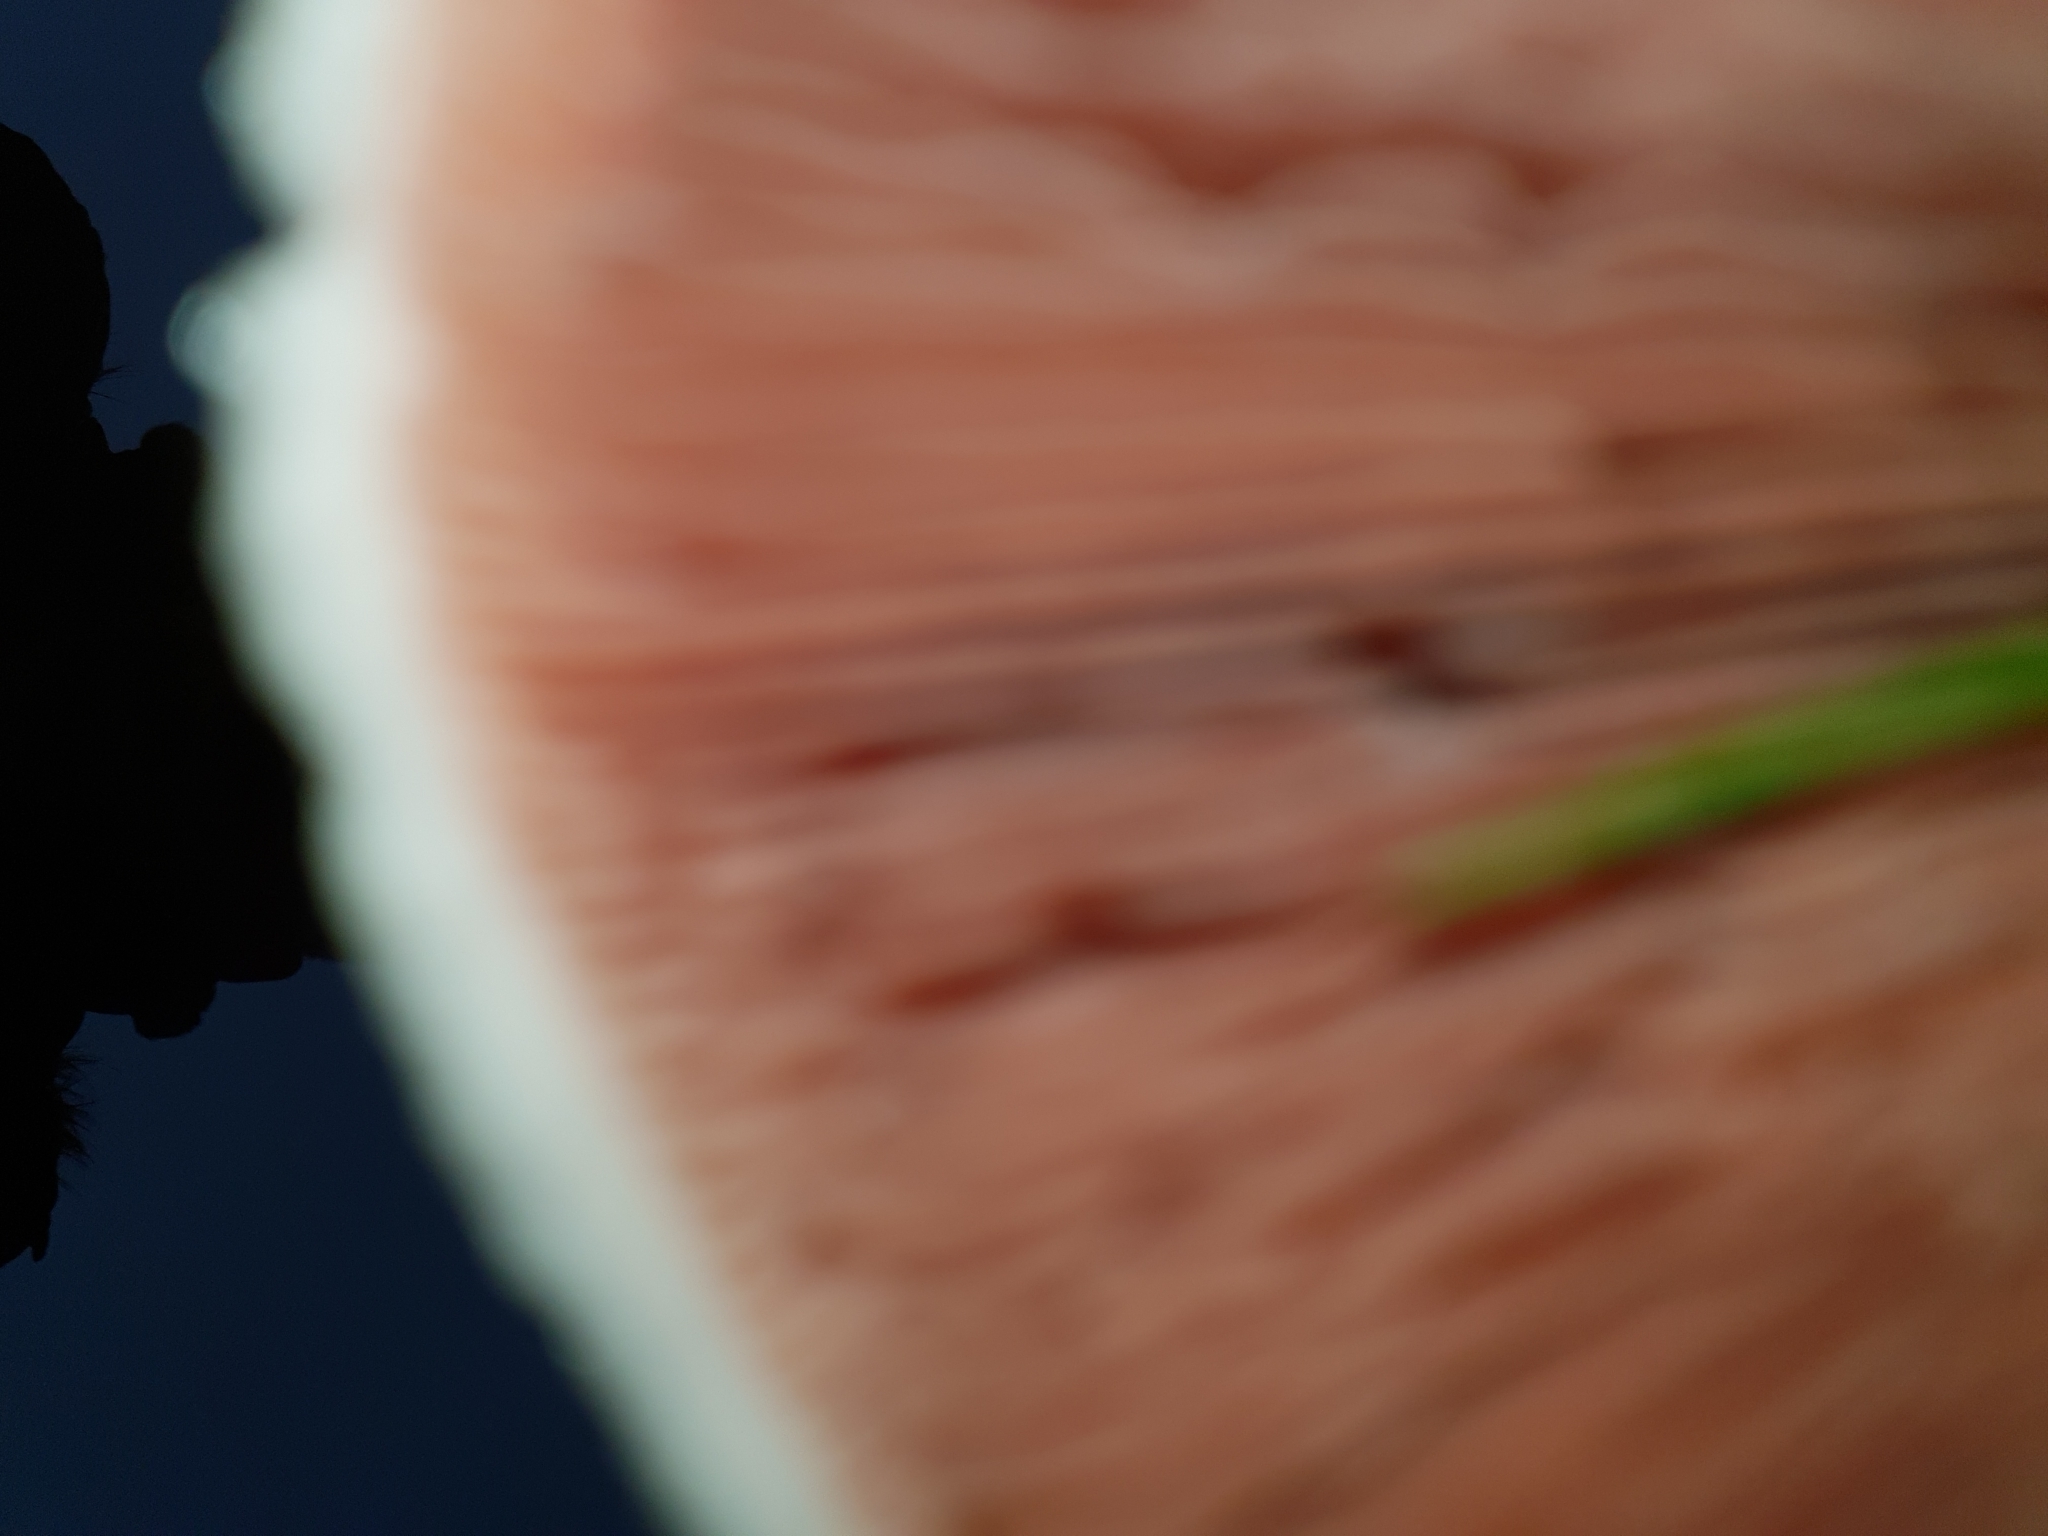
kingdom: Fungi
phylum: Basidiomycota
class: Agaricomycetes
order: Agaricales
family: Agaricaceae
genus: Agaricus
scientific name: Agaricus campestris
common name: Field mushroom
